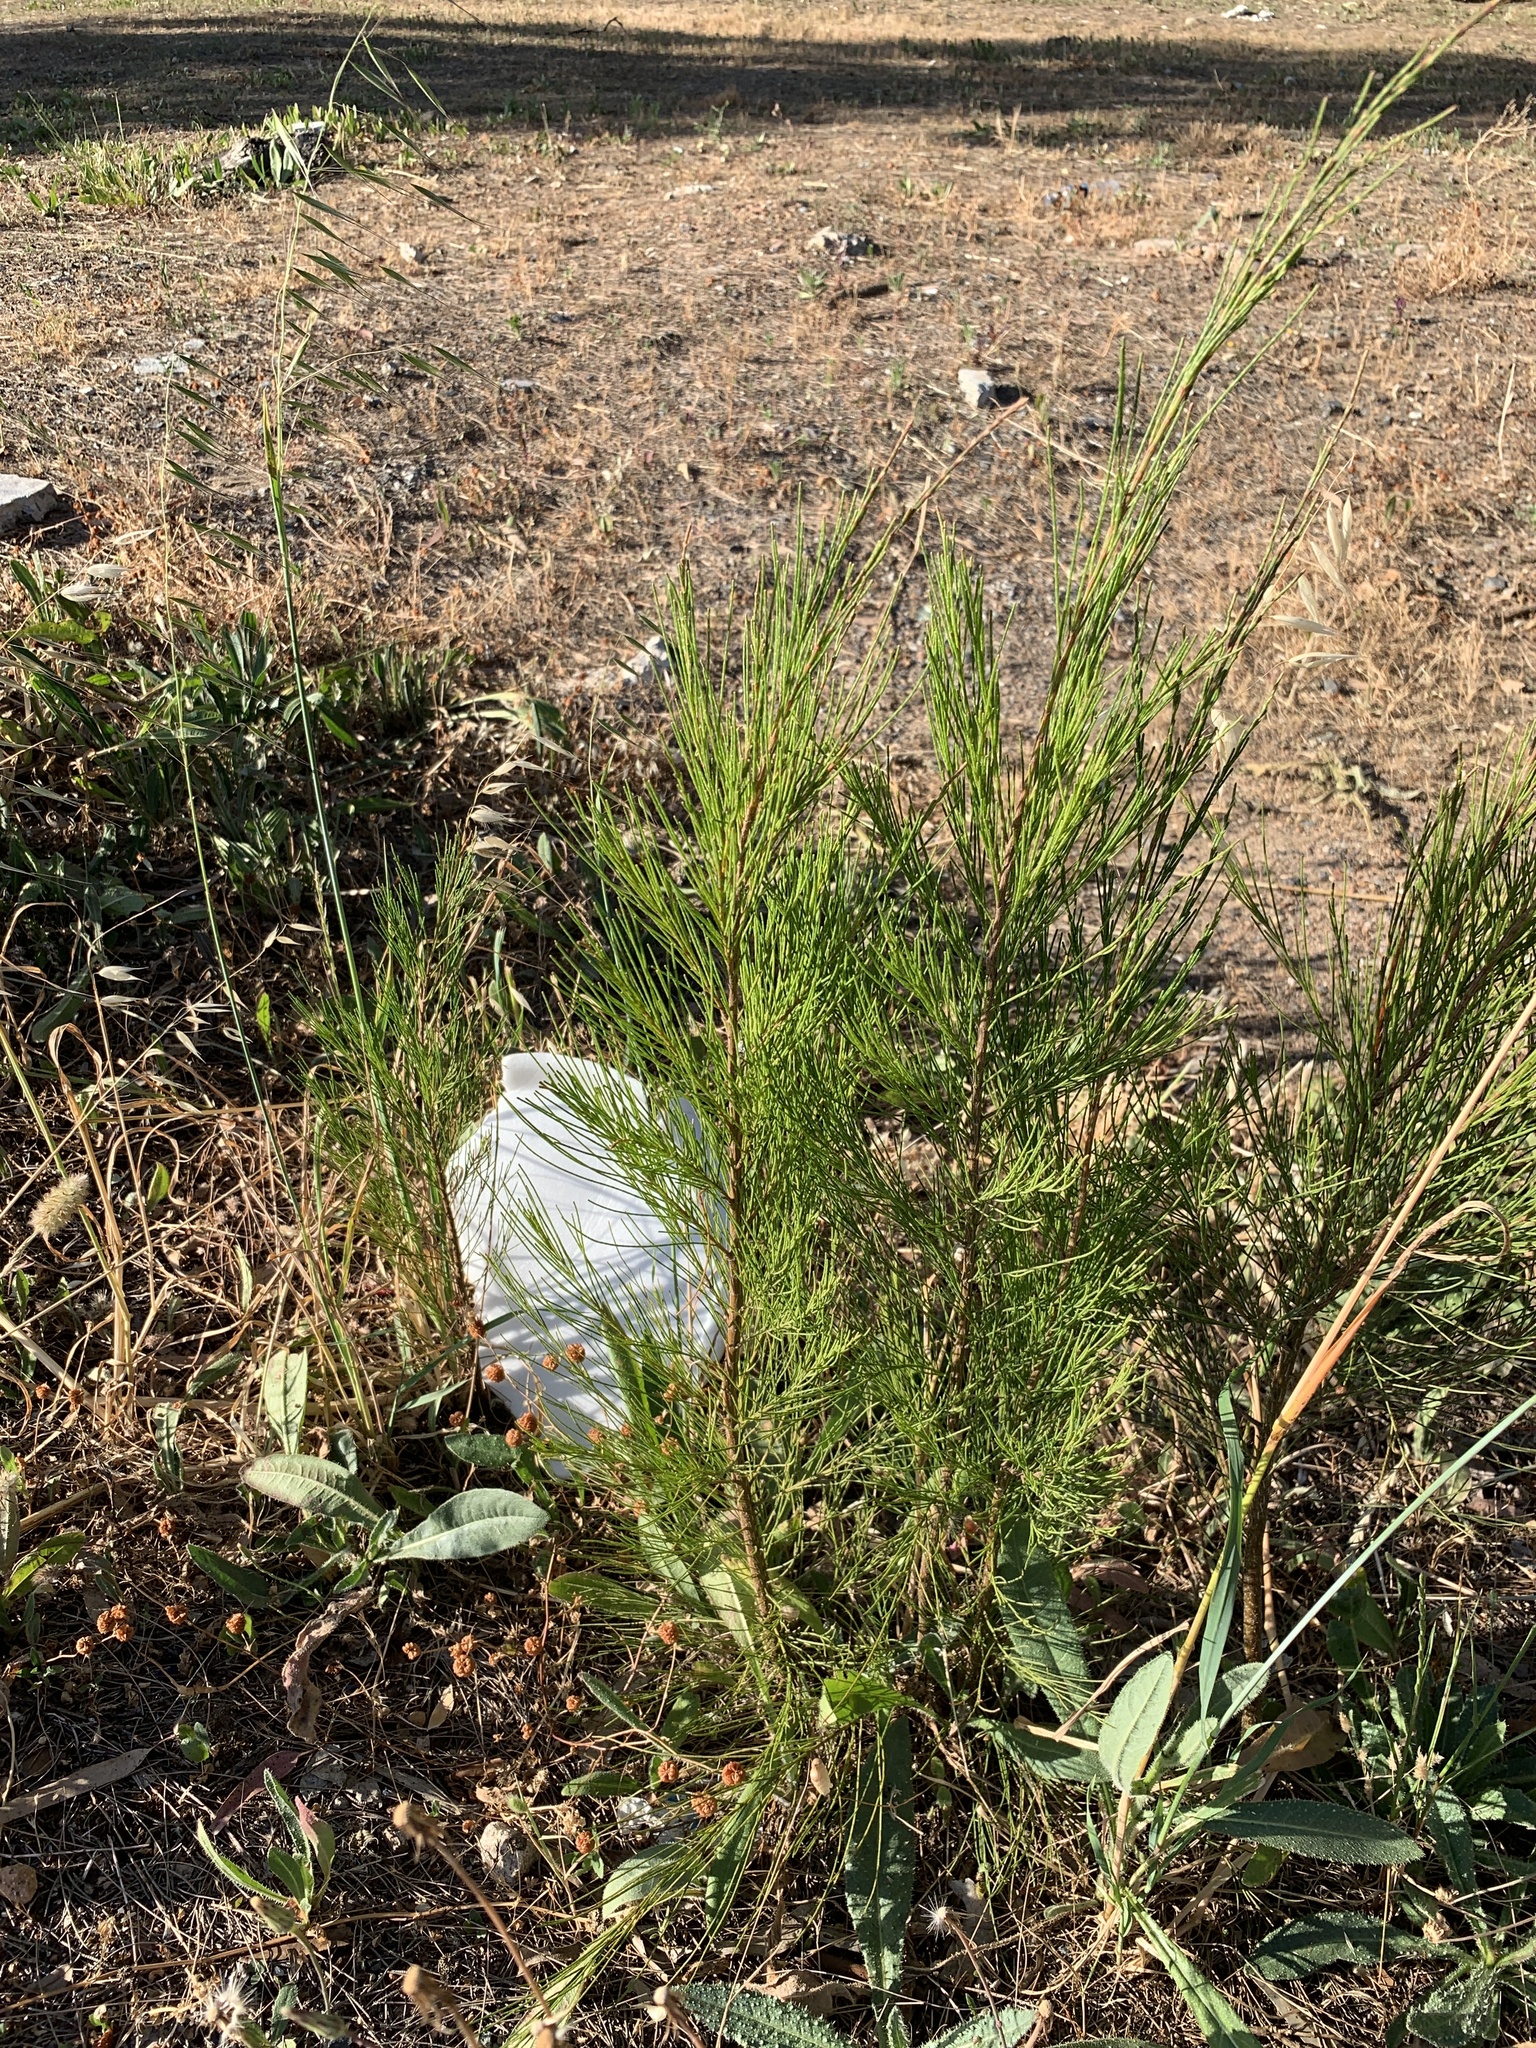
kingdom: Plantae
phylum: Tracheophyta
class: Magnoliopsida
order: Fagales
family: Casuarinaceae
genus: Casuarina
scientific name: Casuarina cunninghamiana
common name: River sheoak
